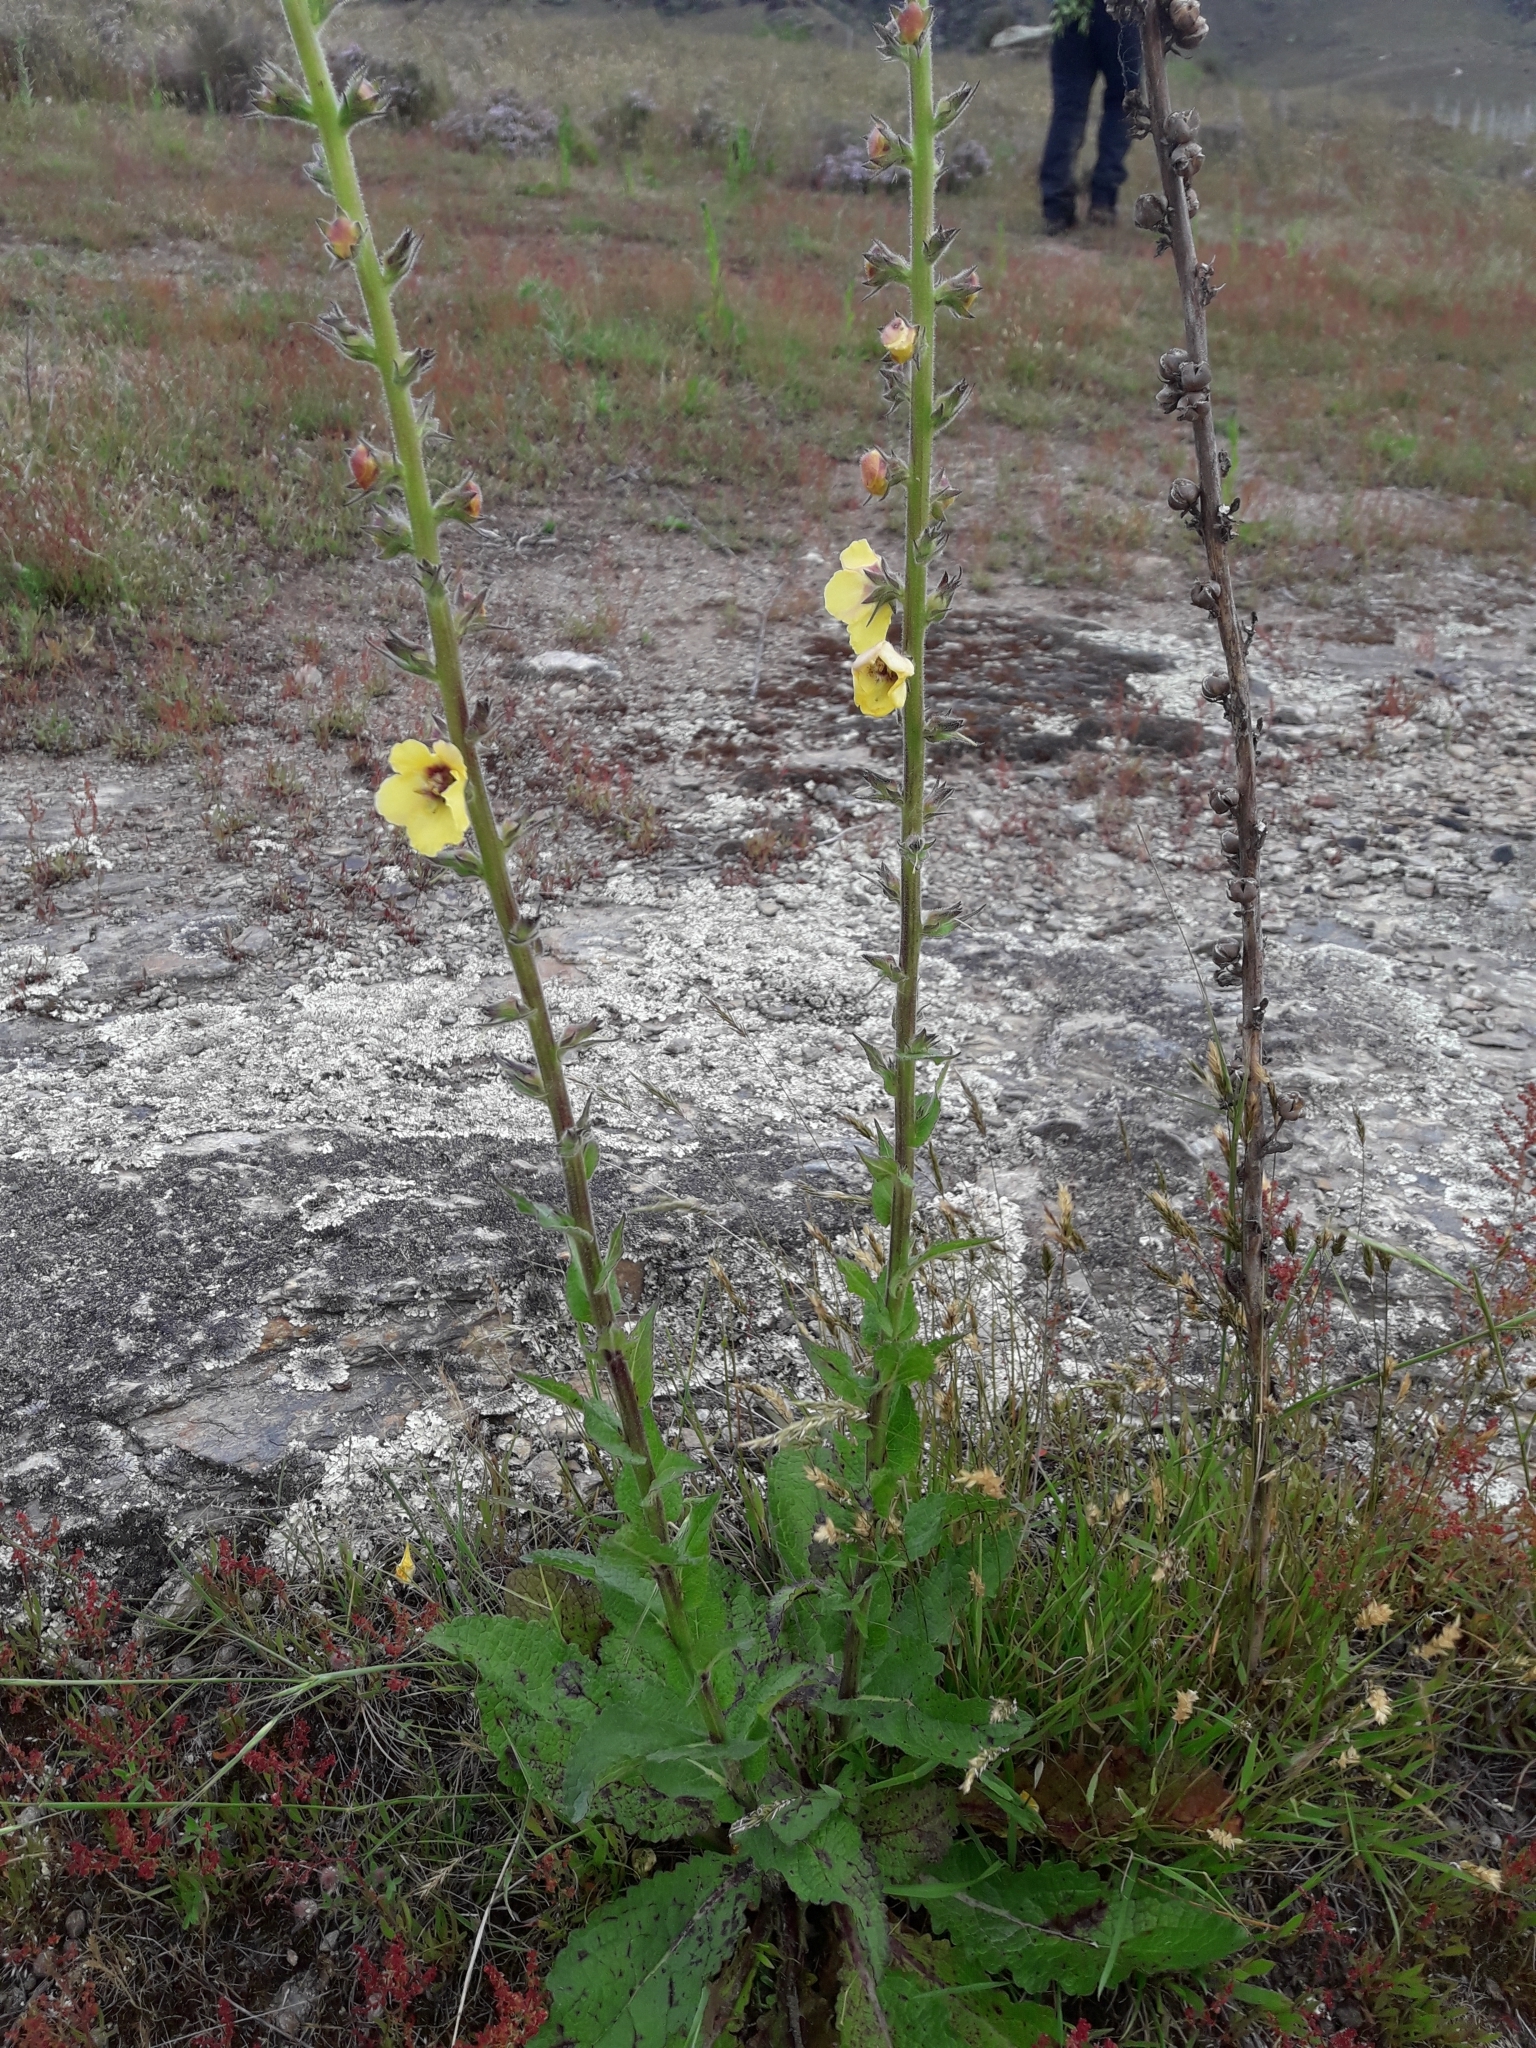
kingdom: Plantae
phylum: Tracheophyta
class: Magnoliopsida
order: Lamiales
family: Scrophulariaceae
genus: Verbascum
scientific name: Verbascum virgatum
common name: Twiggy mullein
